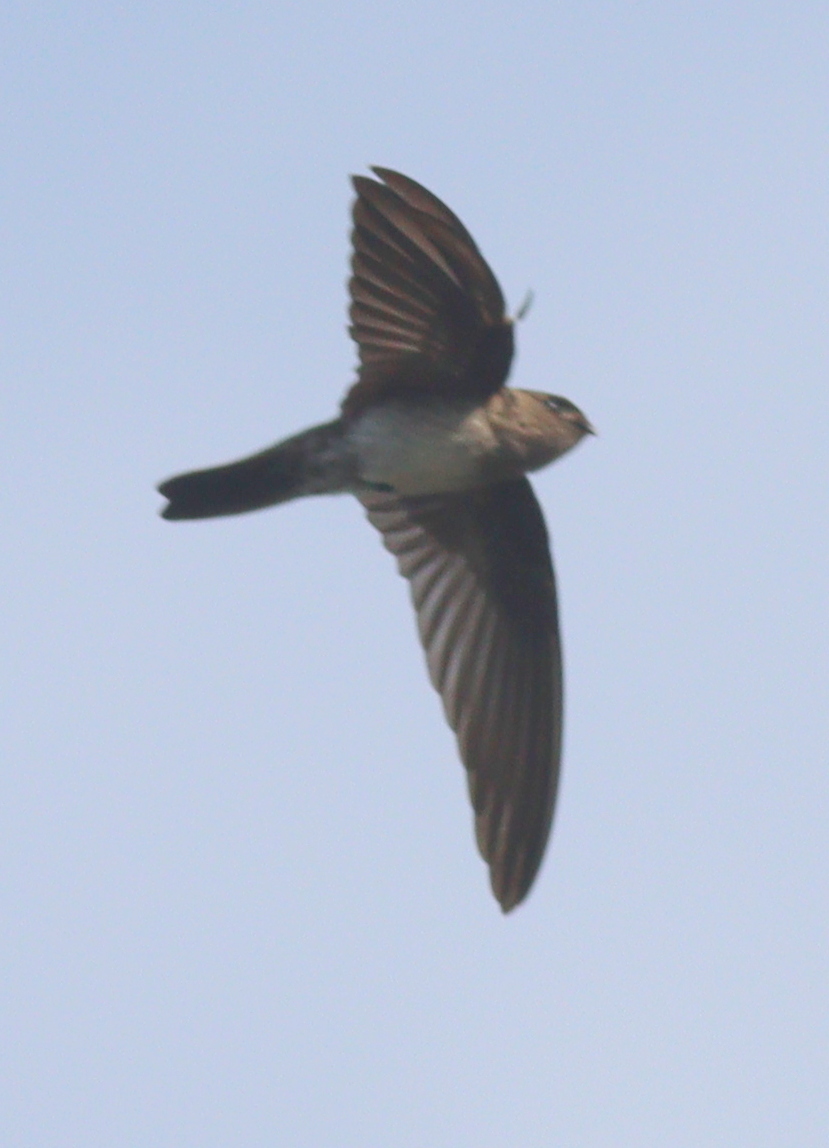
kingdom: Animalia
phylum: Chordata
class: Aves
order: Apodiformes
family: Apodidae
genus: Collocalia
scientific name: Collocalia linchi
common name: Cave swiftlet
